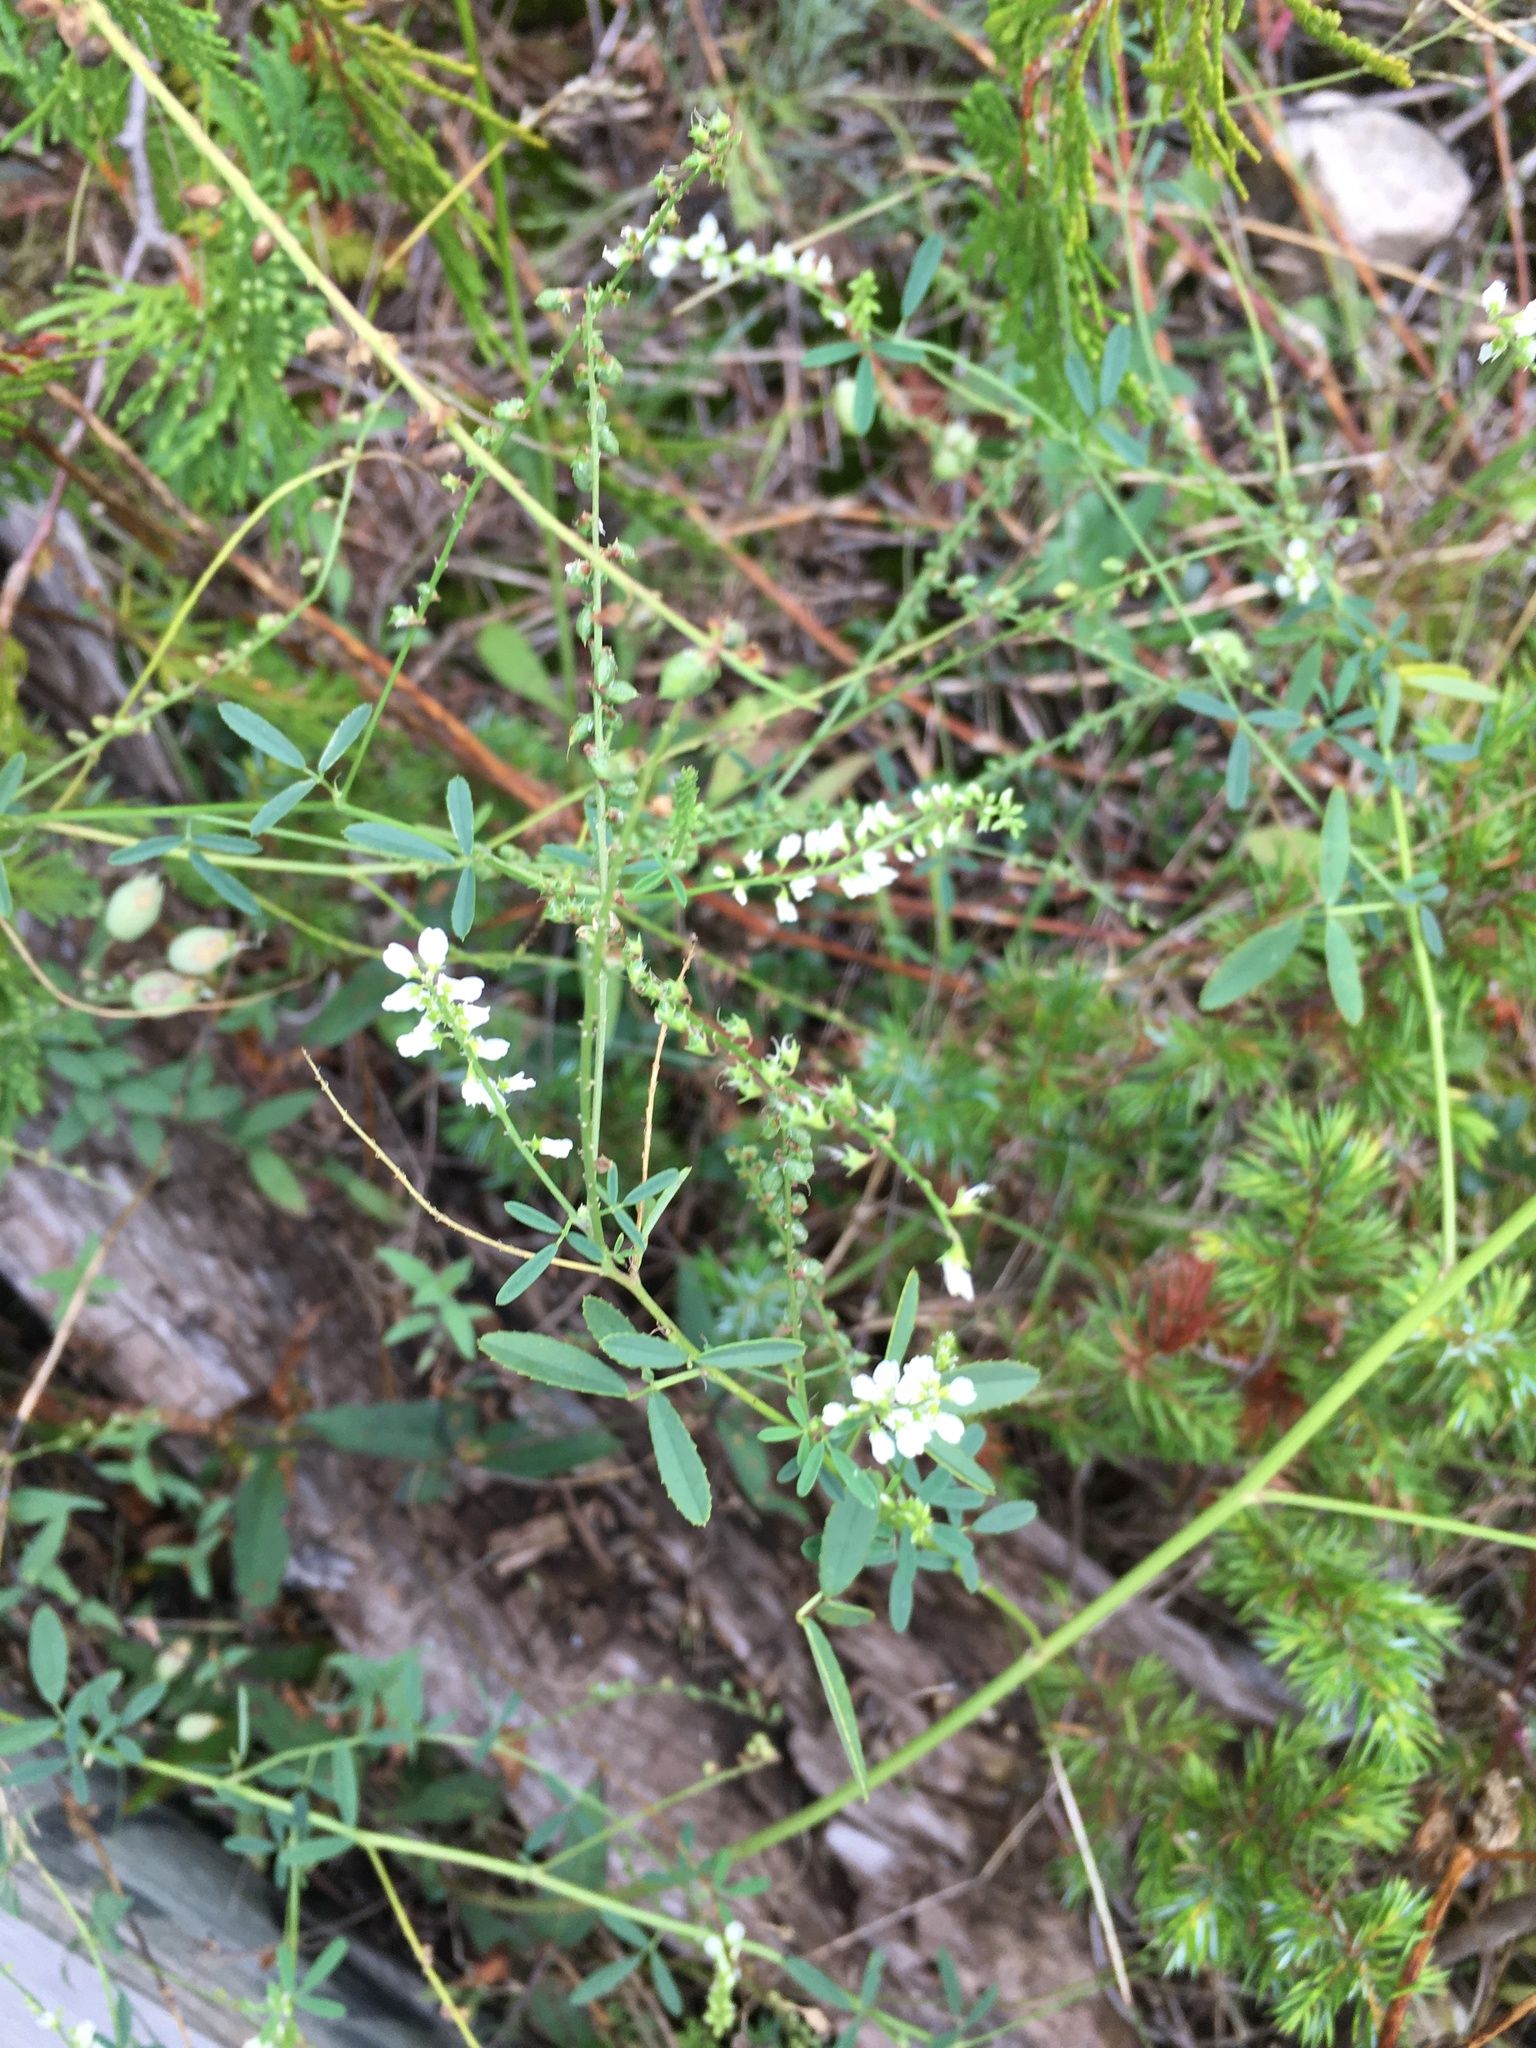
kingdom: Plantae
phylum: Tracheophyta
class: Magnoliopsida
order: Fabales
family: Fabaceae
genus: Melilotus
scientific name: Melilotus albus
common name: White melilot
